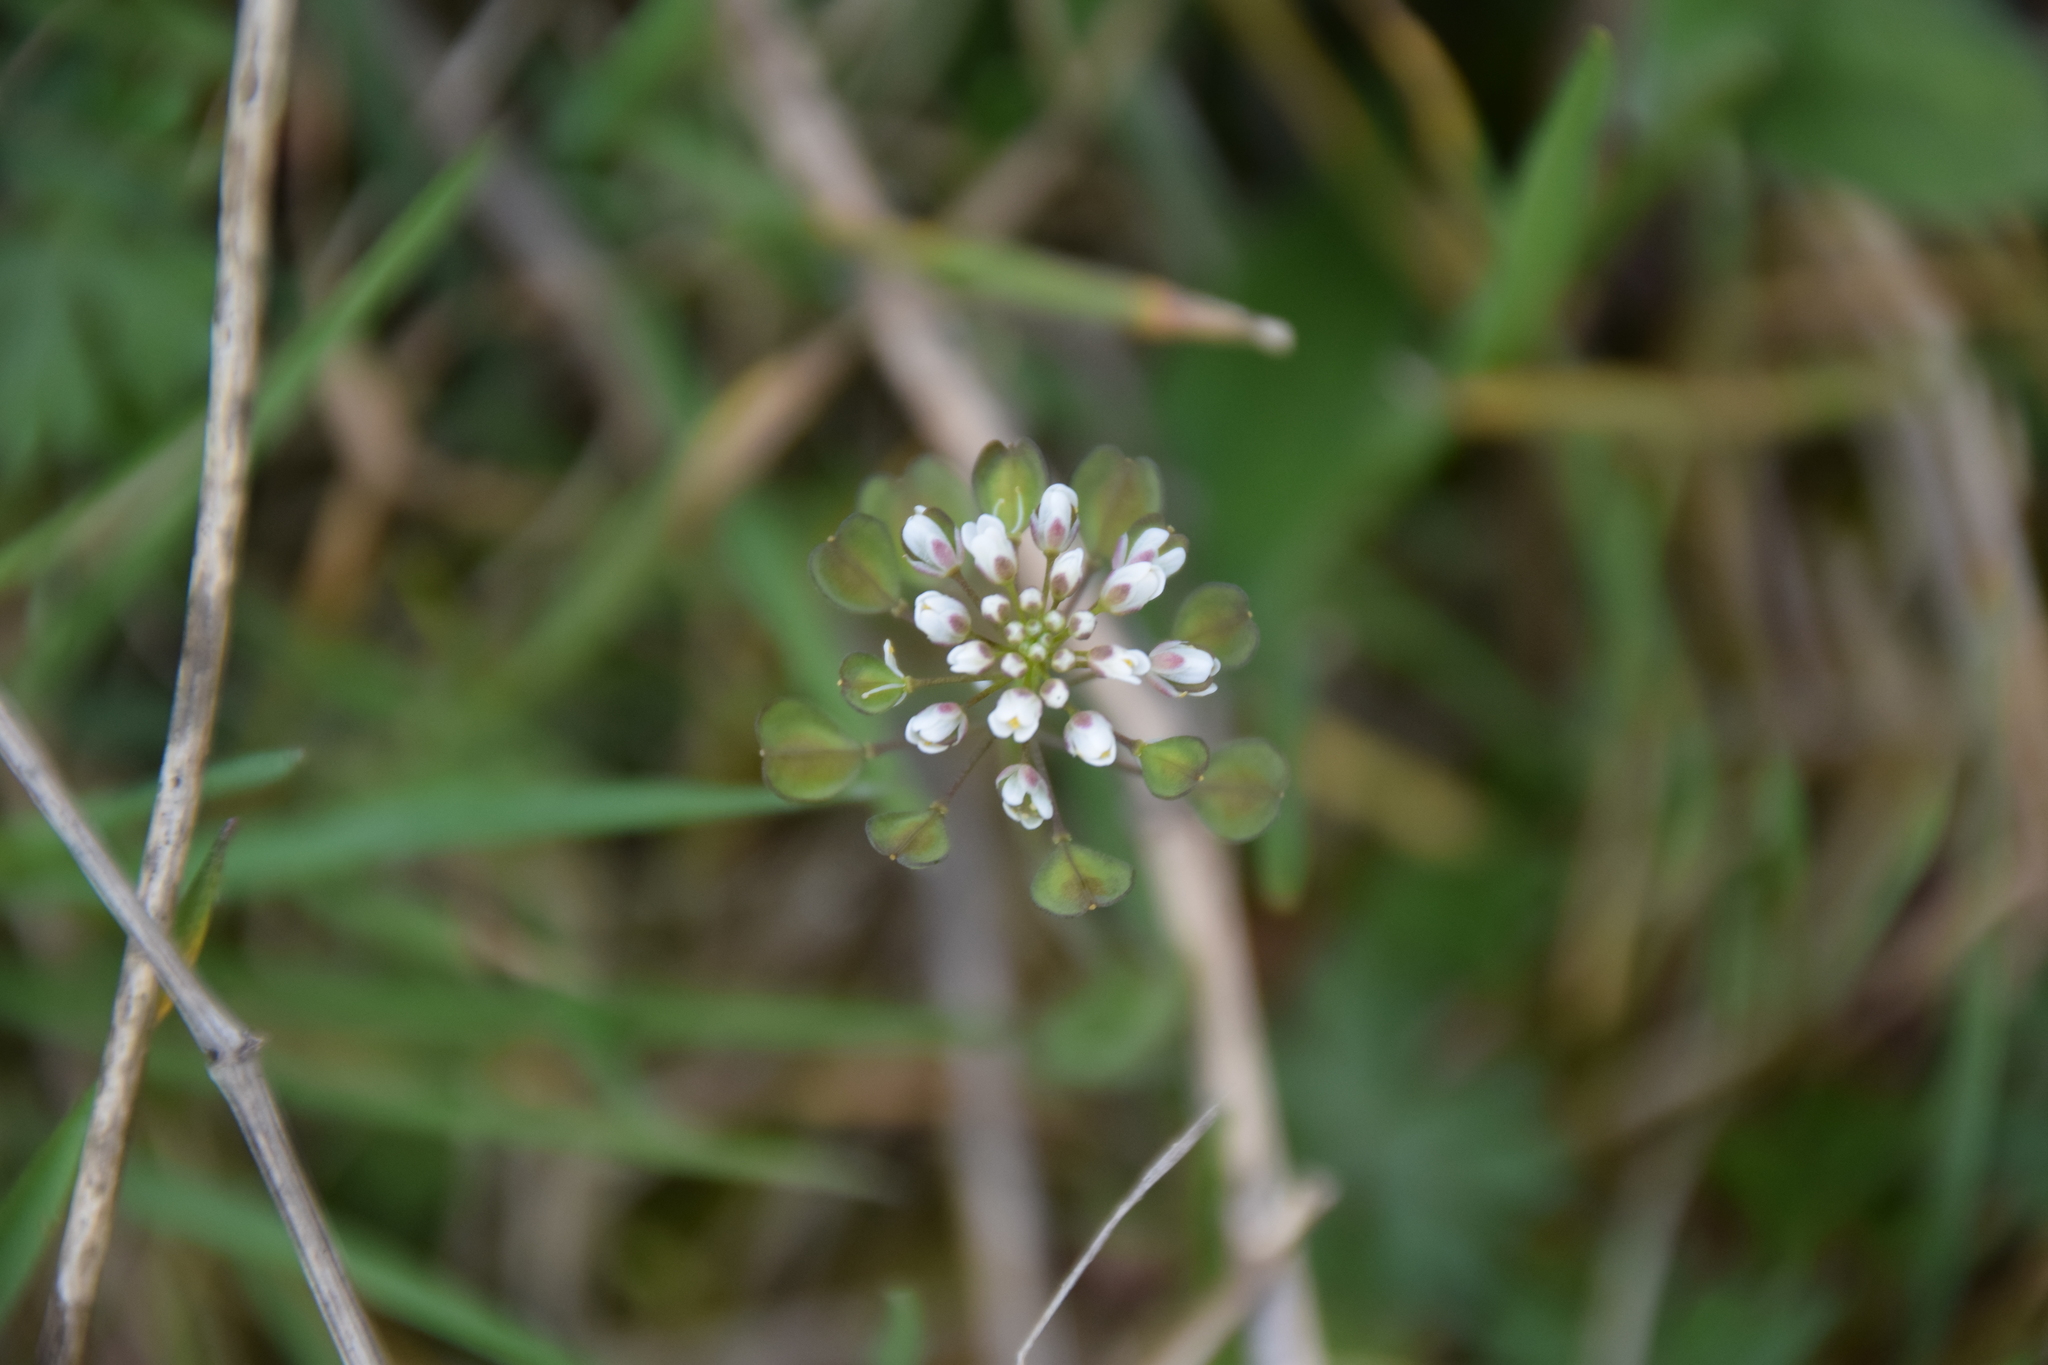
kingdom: Plantae
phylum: Tracheophyta
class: Magnoliopsida
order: Brassicales
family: Brassicaceae
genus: Noccaea
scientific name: Noccaea perfoliata
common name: Perfoliate pennycress
